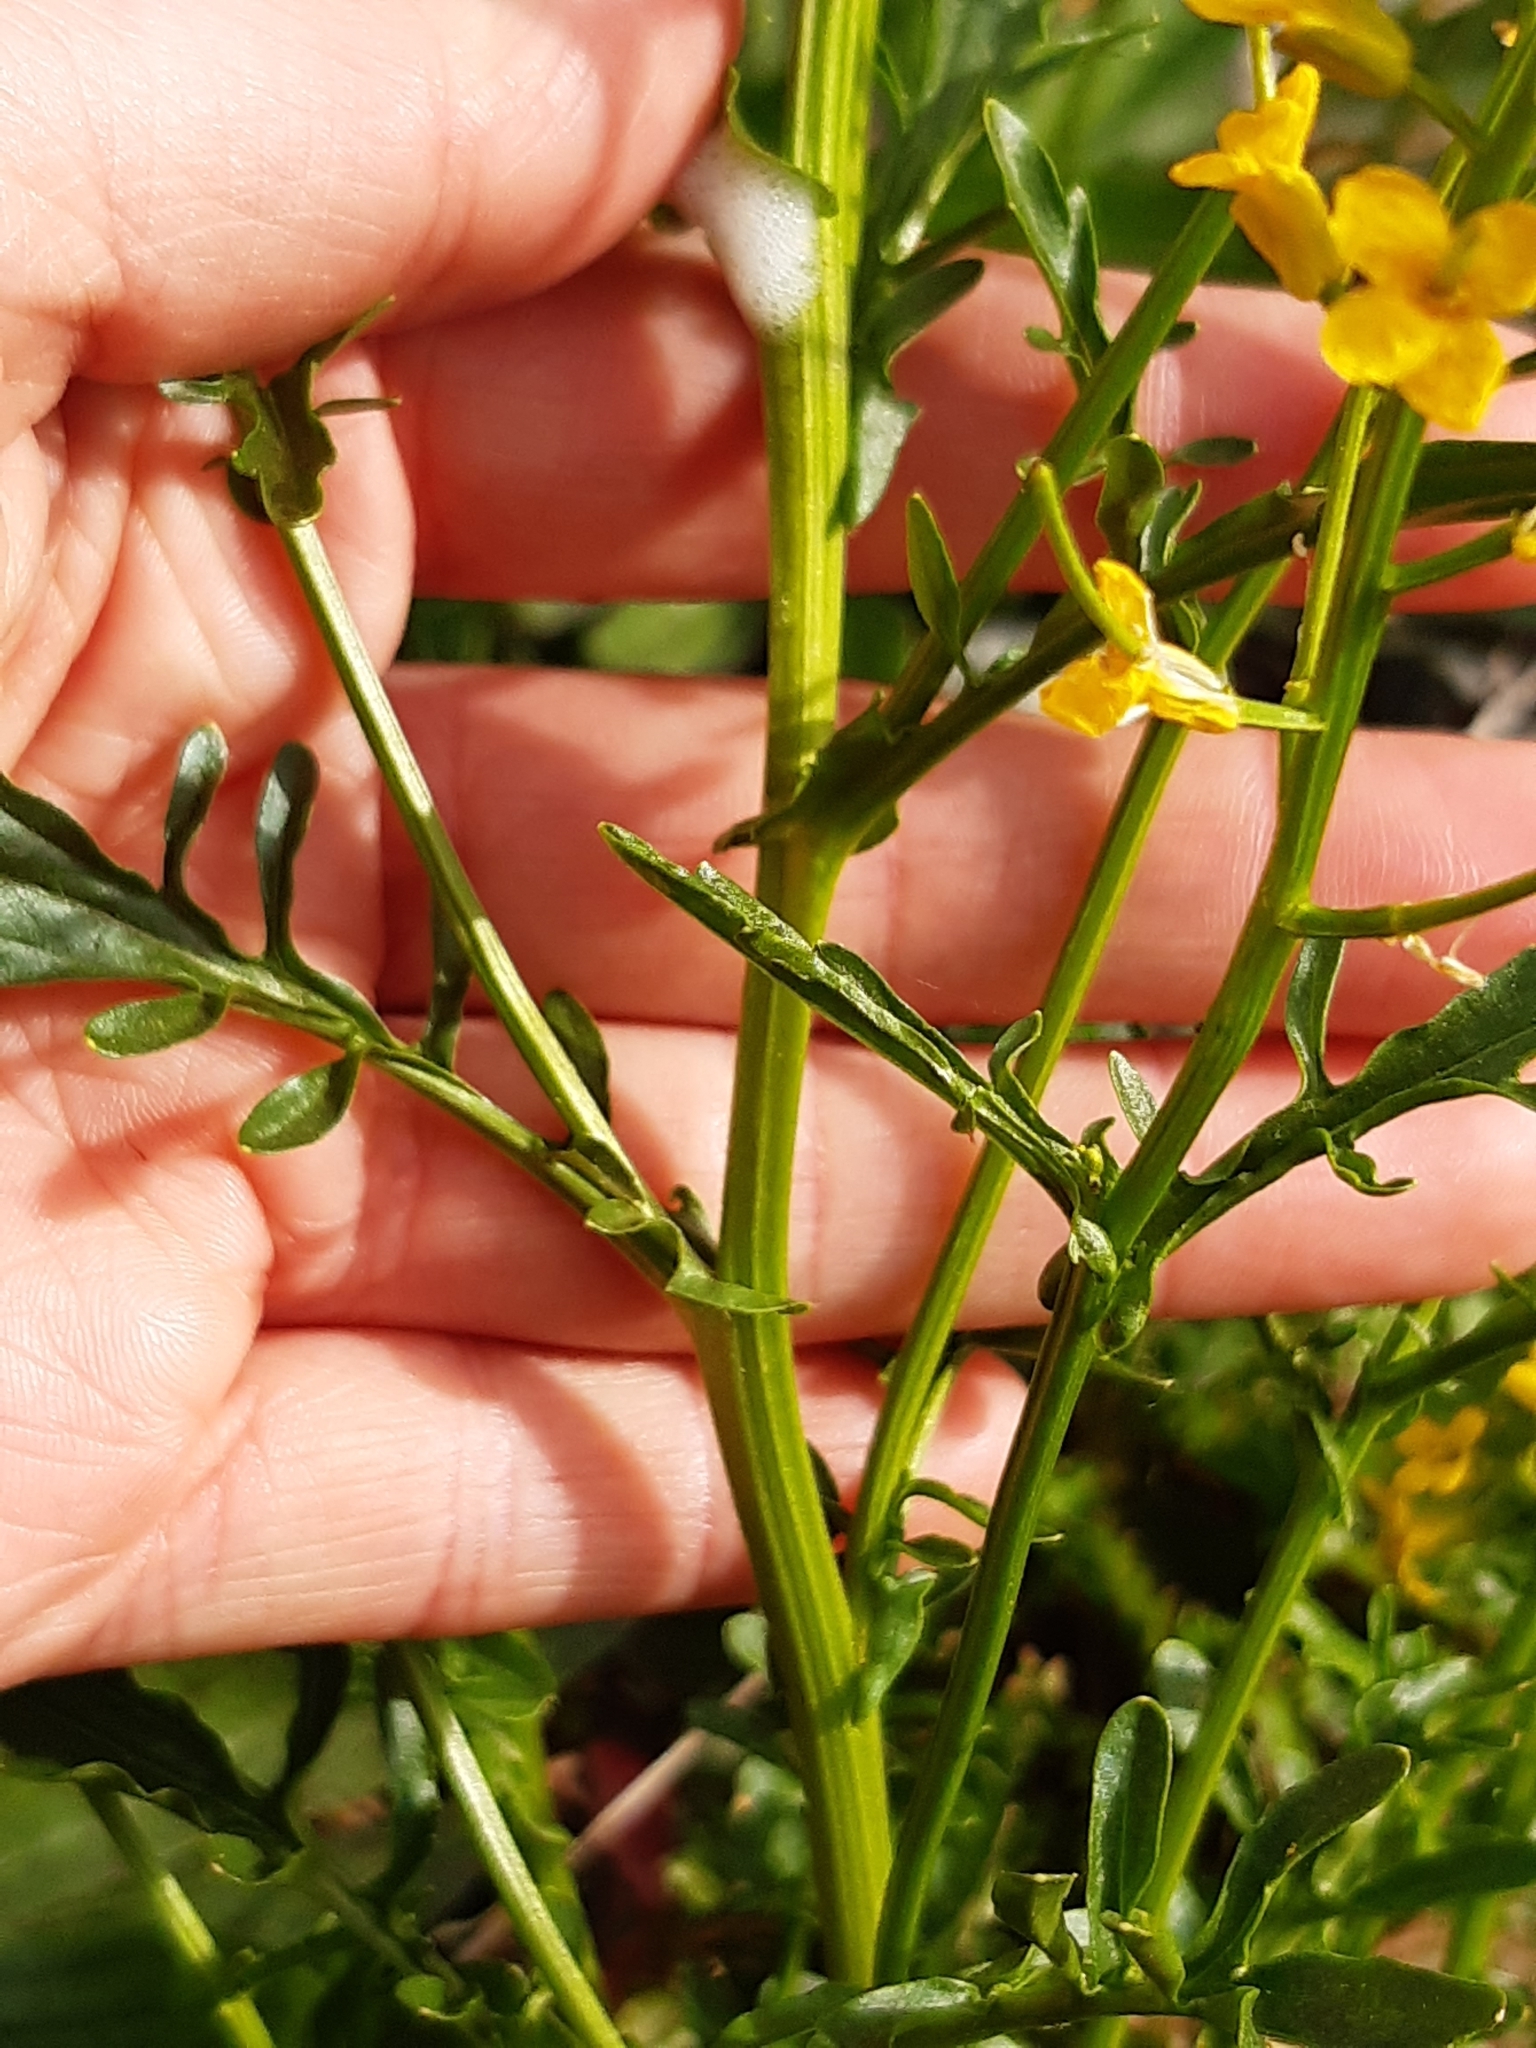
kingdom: Plantae
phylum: Tracheophyta
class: Magnoliopsida
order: Brassicales
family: Brassicaceae
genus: Barbarea
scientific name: Barbarea verna
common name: American cress
